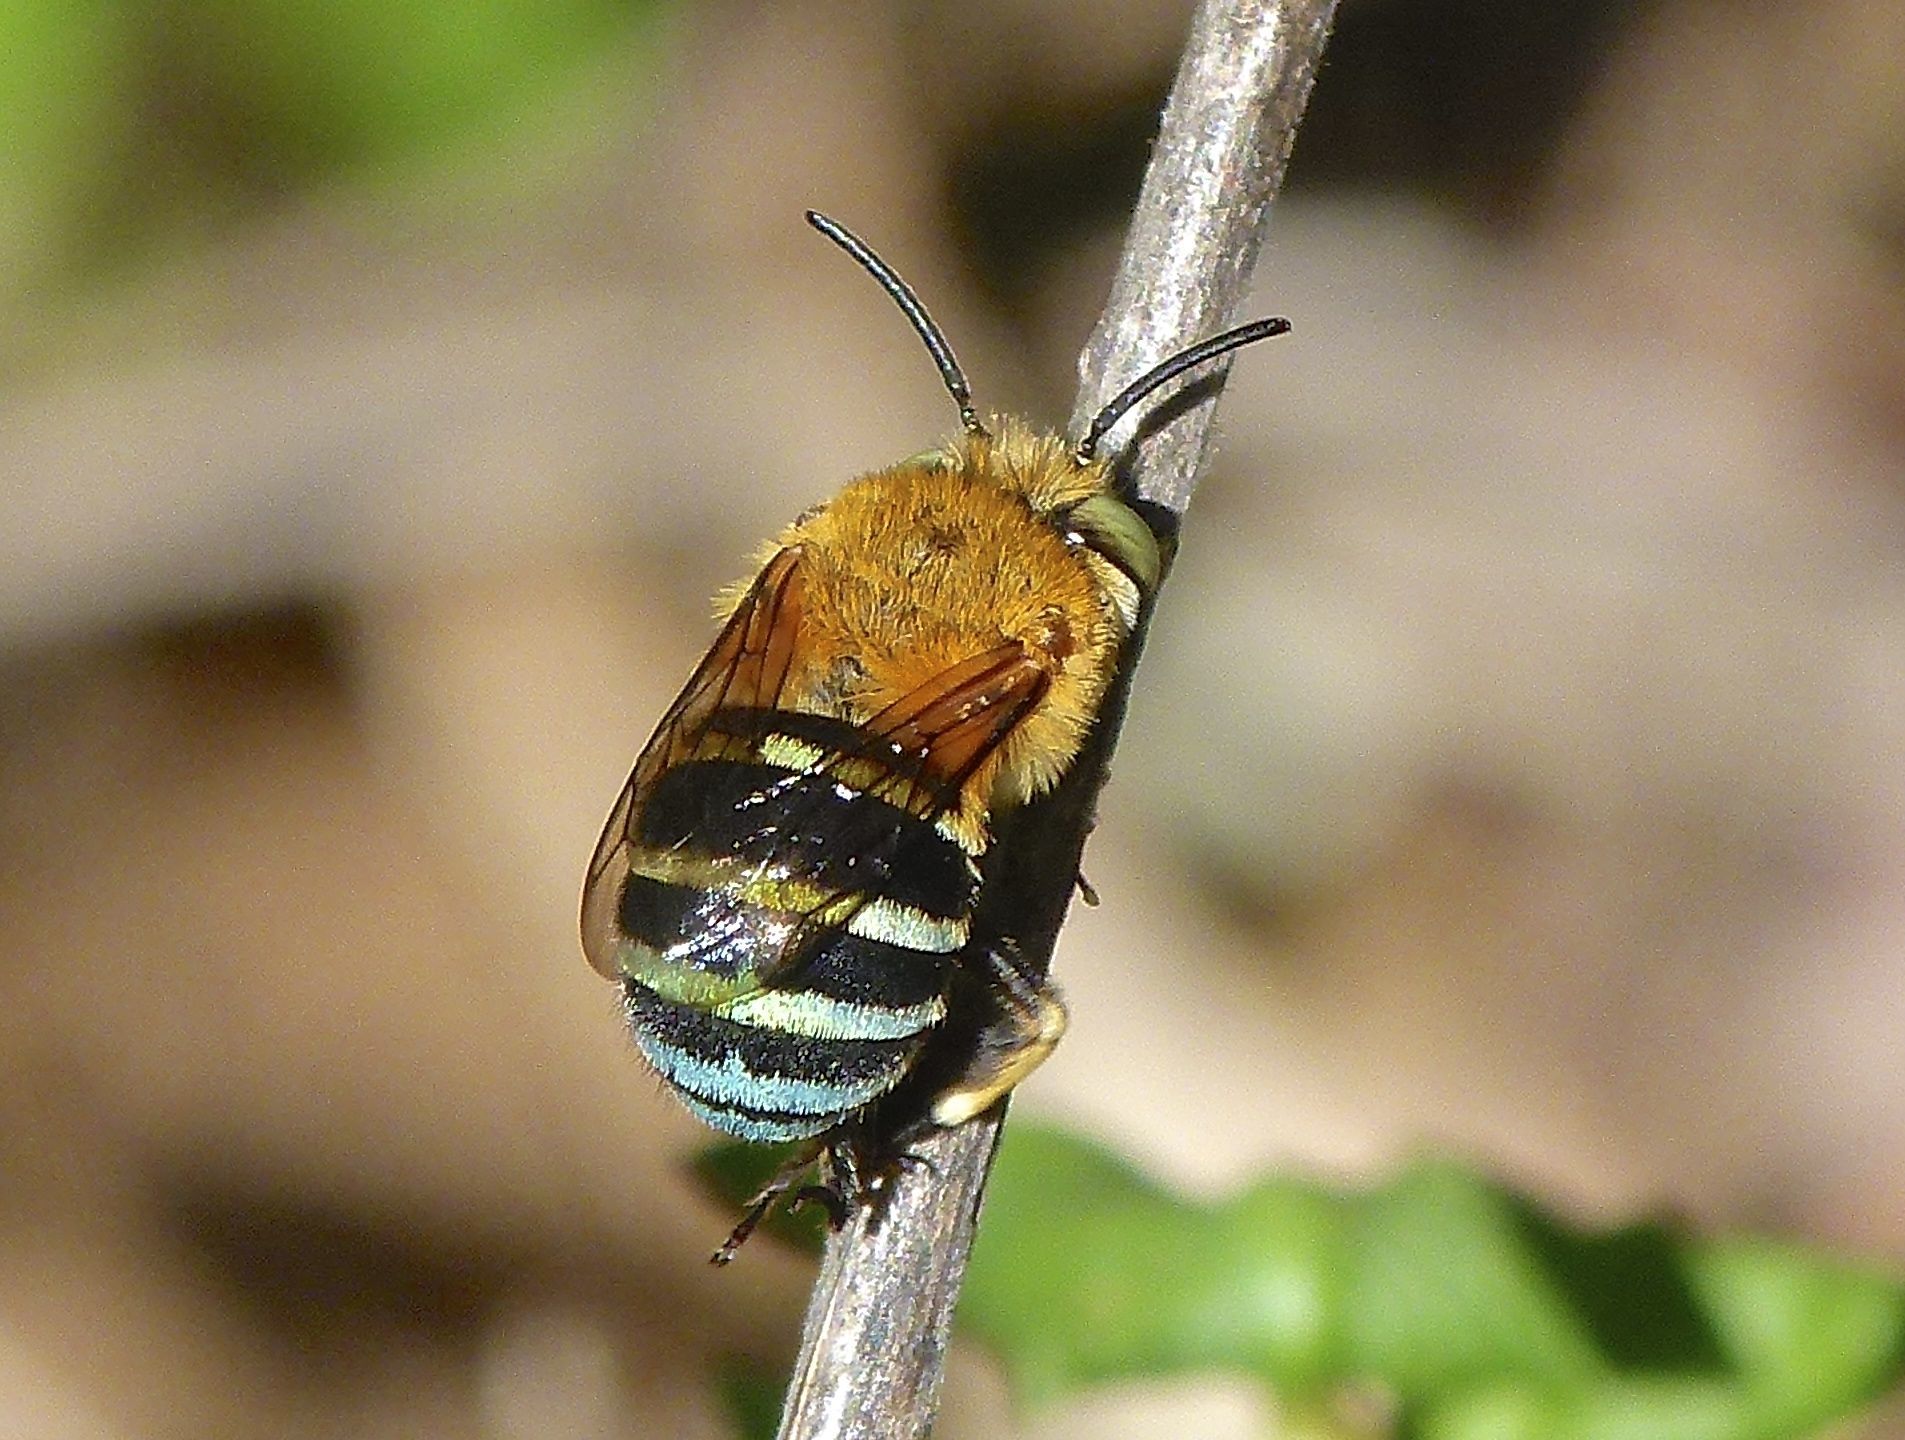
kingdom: Animalia
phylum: Arthropoda
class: Insecta
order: Hymenoptera
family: Apidae
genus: Amegilla
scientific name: Amegilla cingulata
